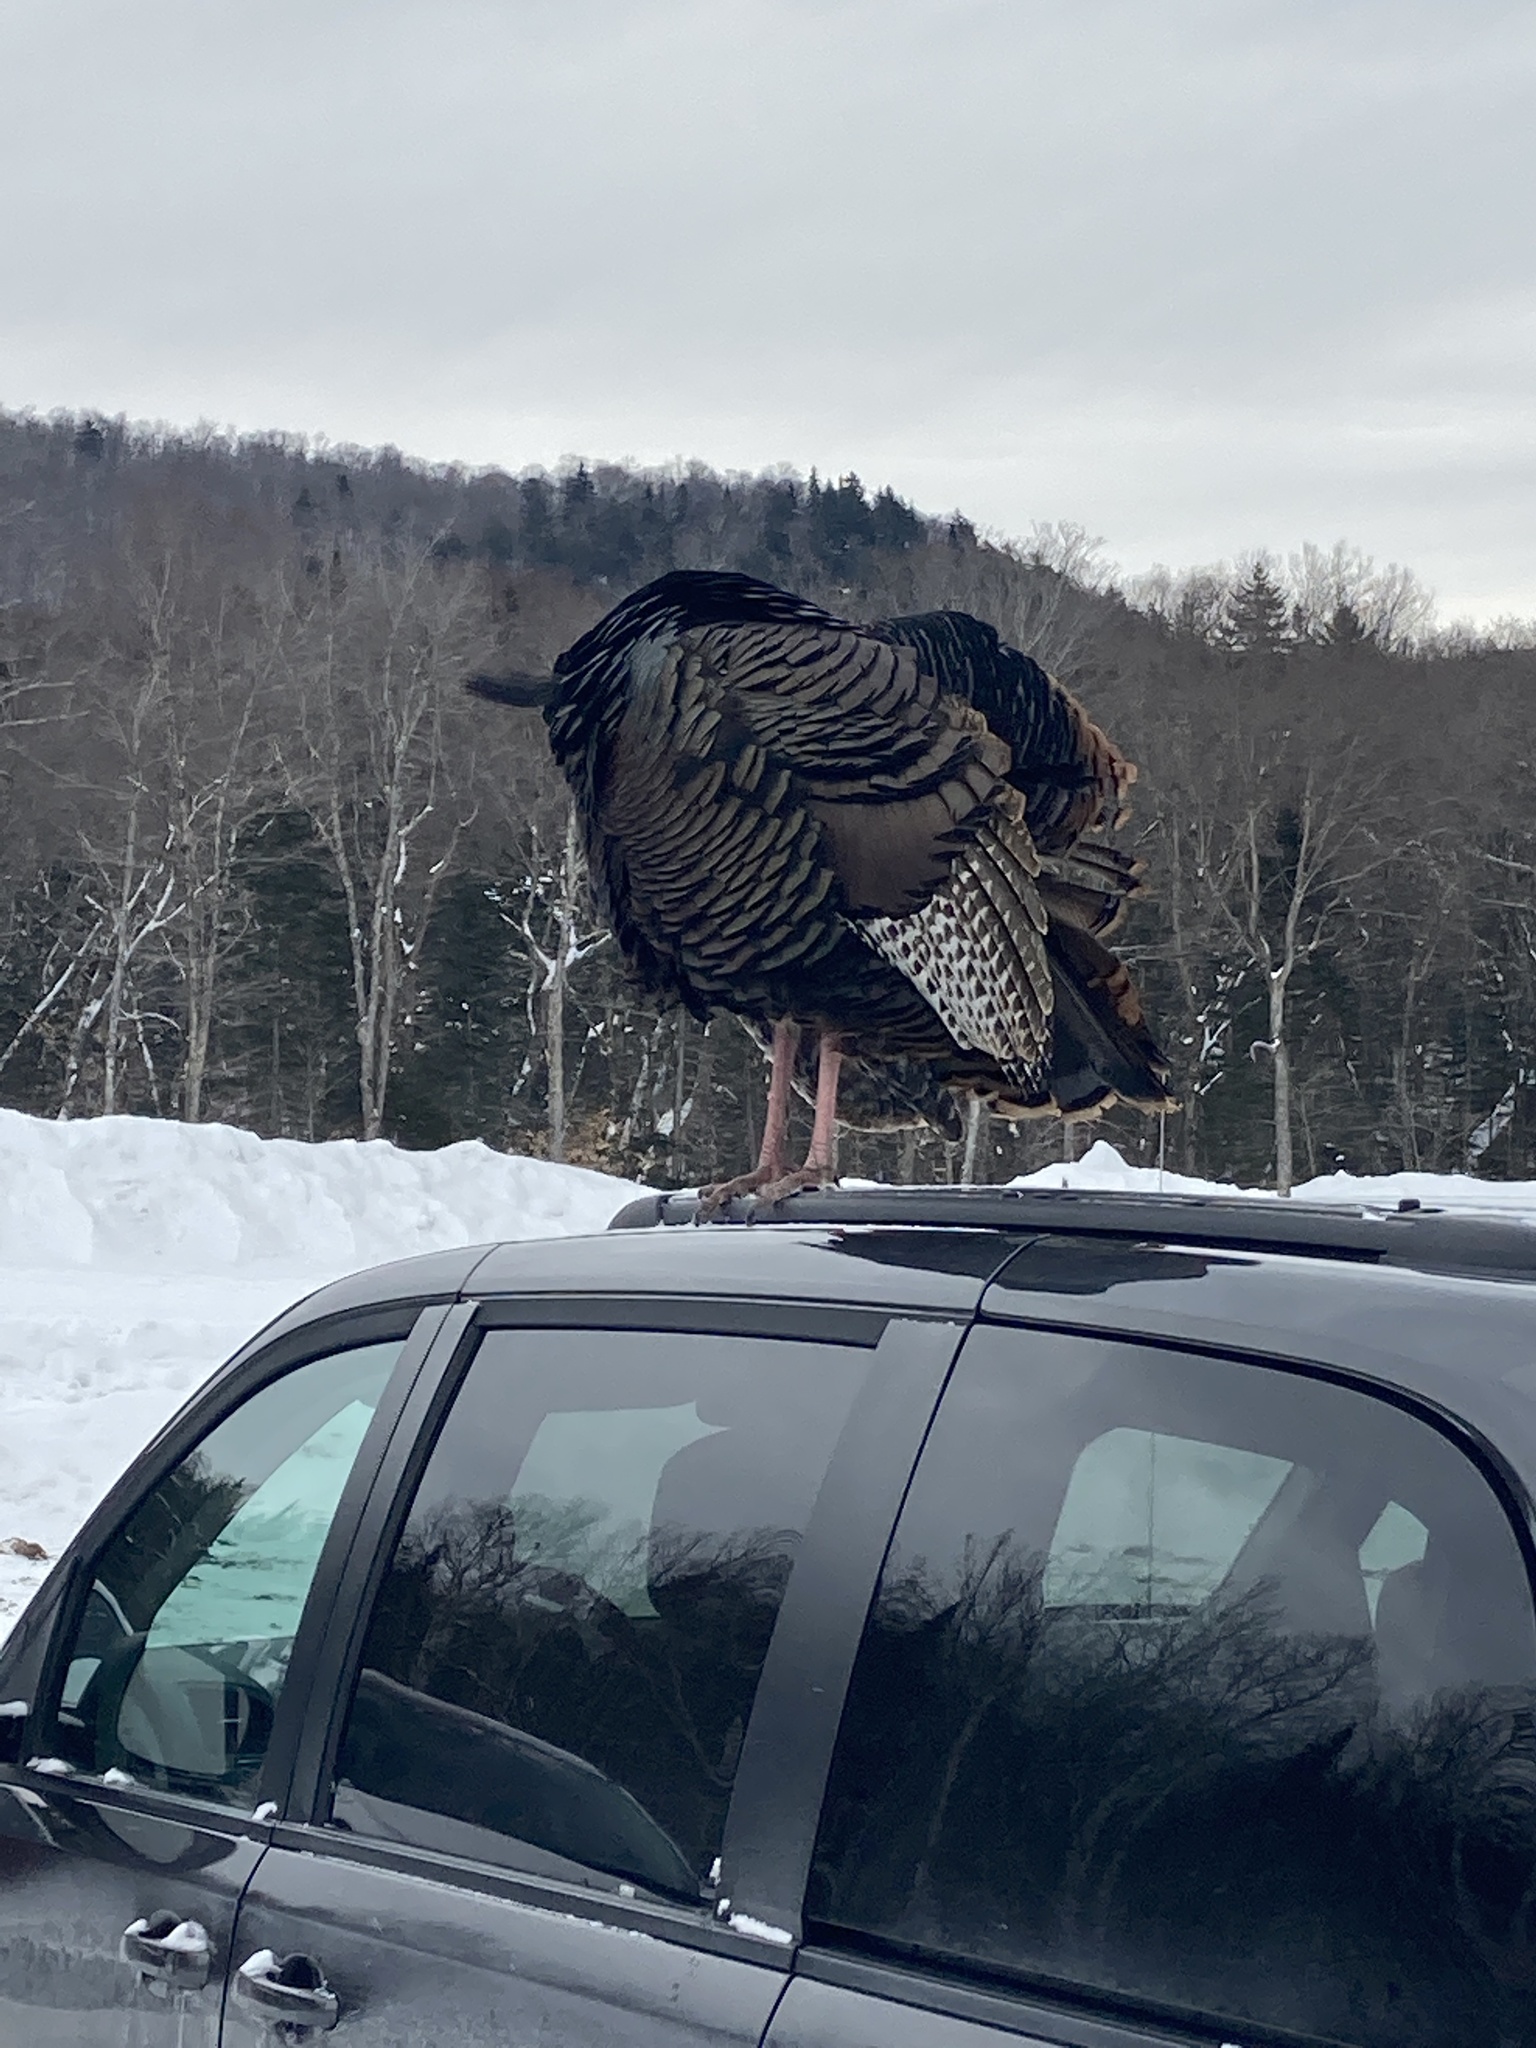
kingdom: Animalia
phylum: Chordata
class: Aves
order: Galliformes
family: Phasianidae
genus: Meleagris
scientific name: Meleagris gallopavo
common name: Wild turkey
